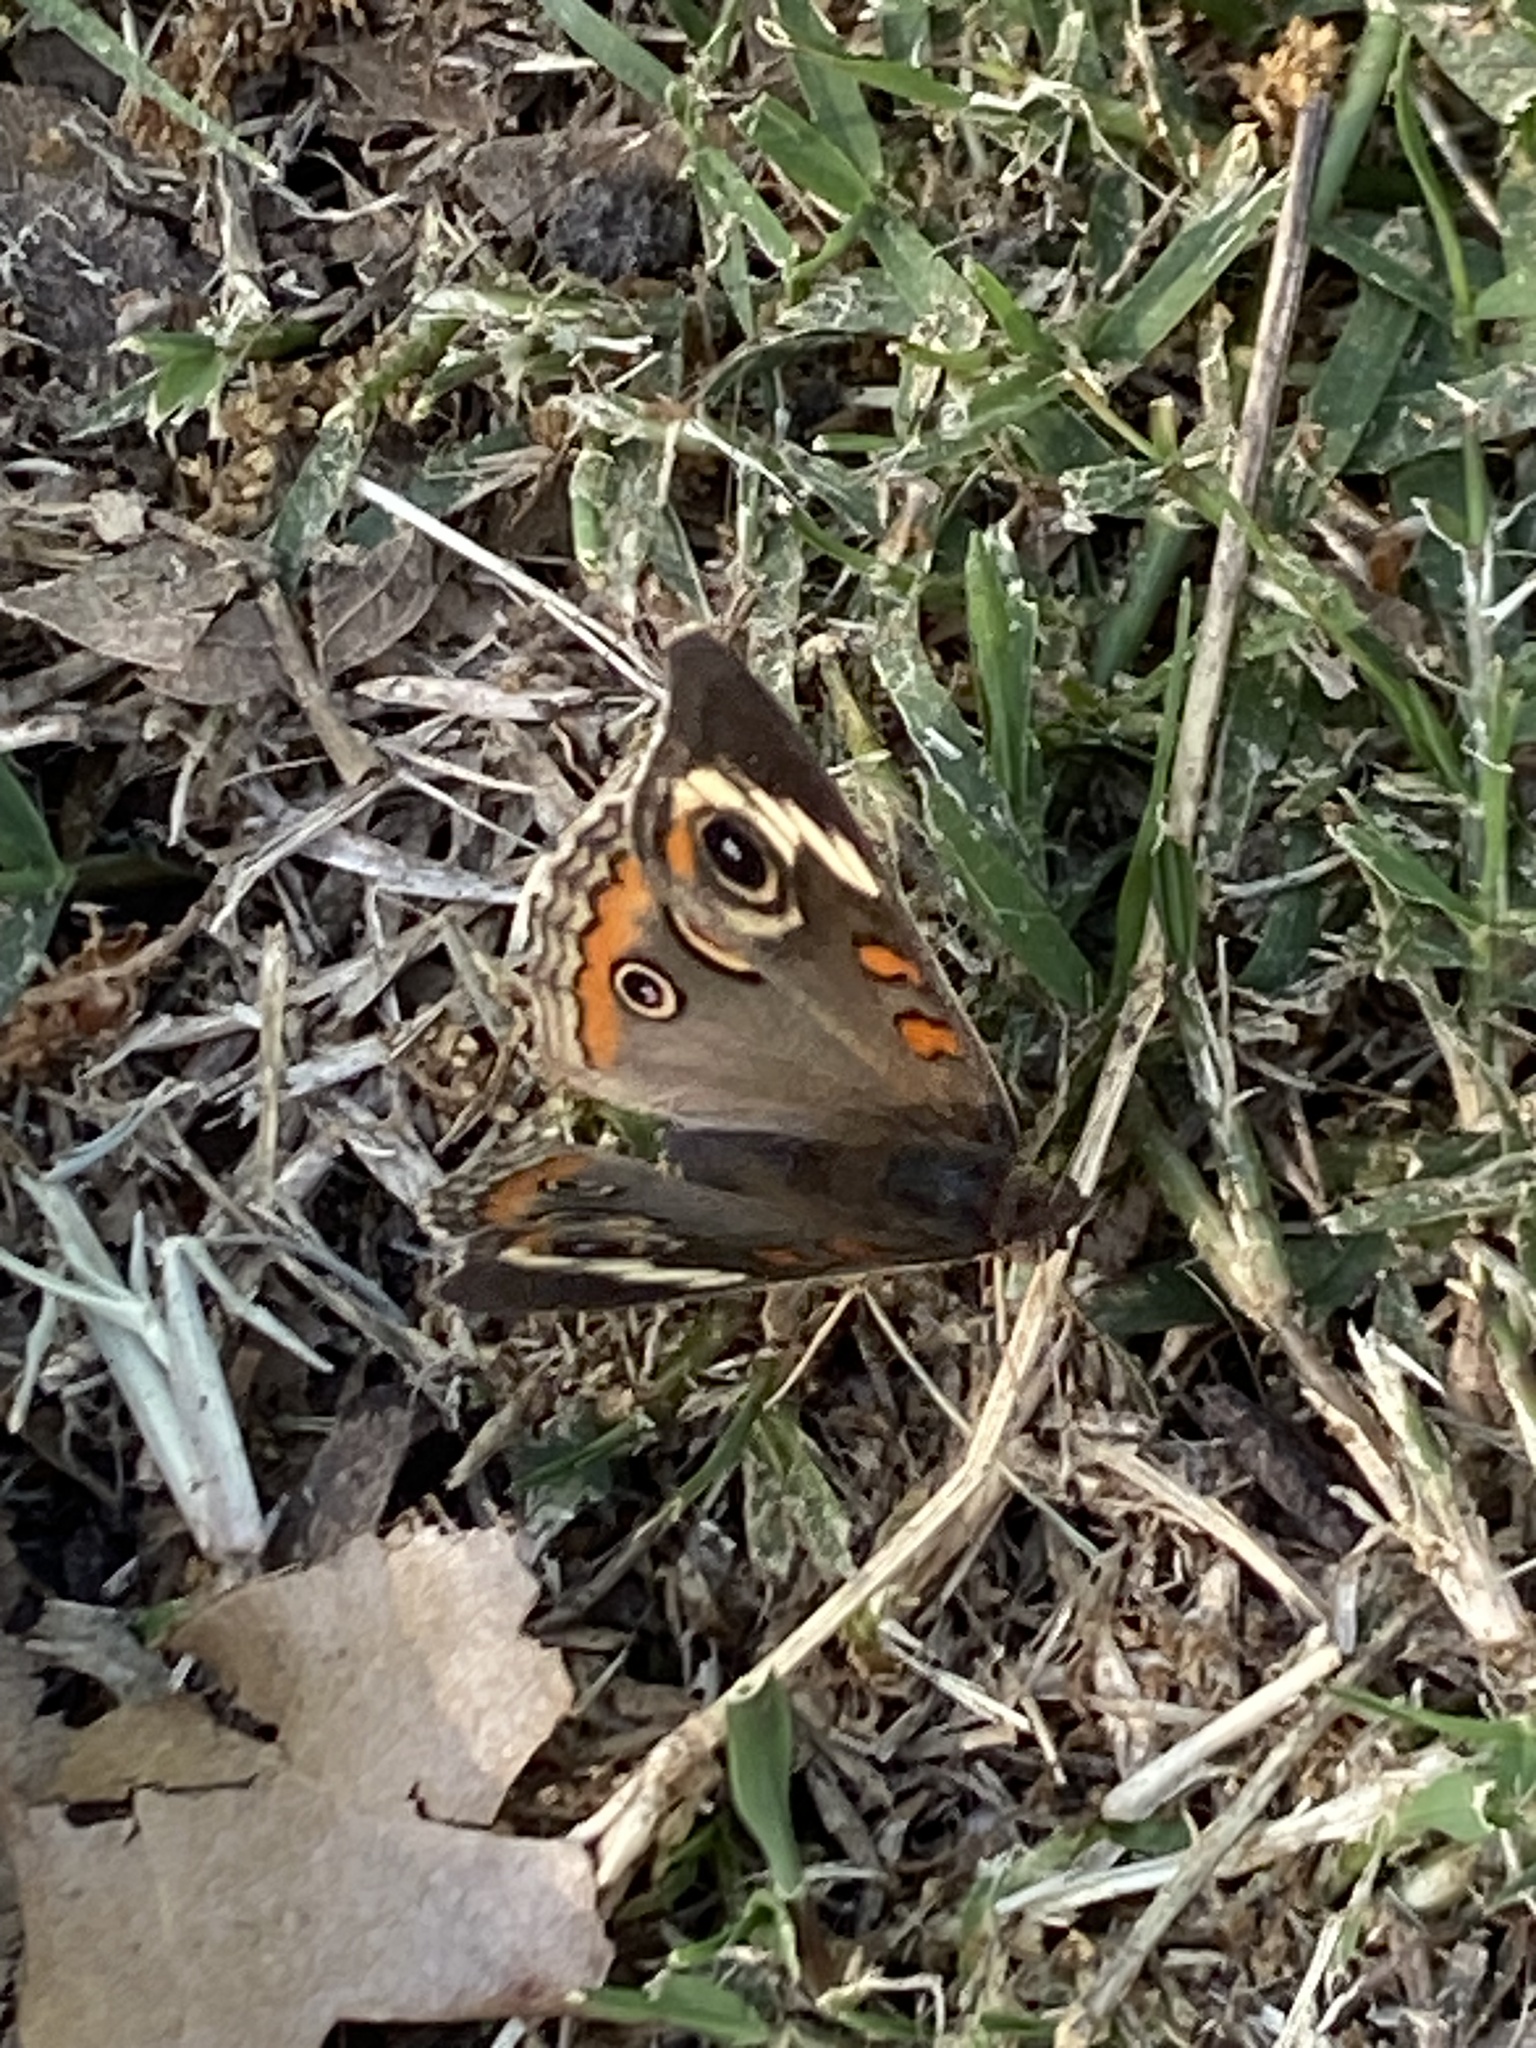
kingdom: Animalia
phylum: Arthropoda
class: Insecta
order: Lepidoptera
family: Nymphalidae
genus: Junonia
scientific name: Junonia coenia
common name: Common buckeye
